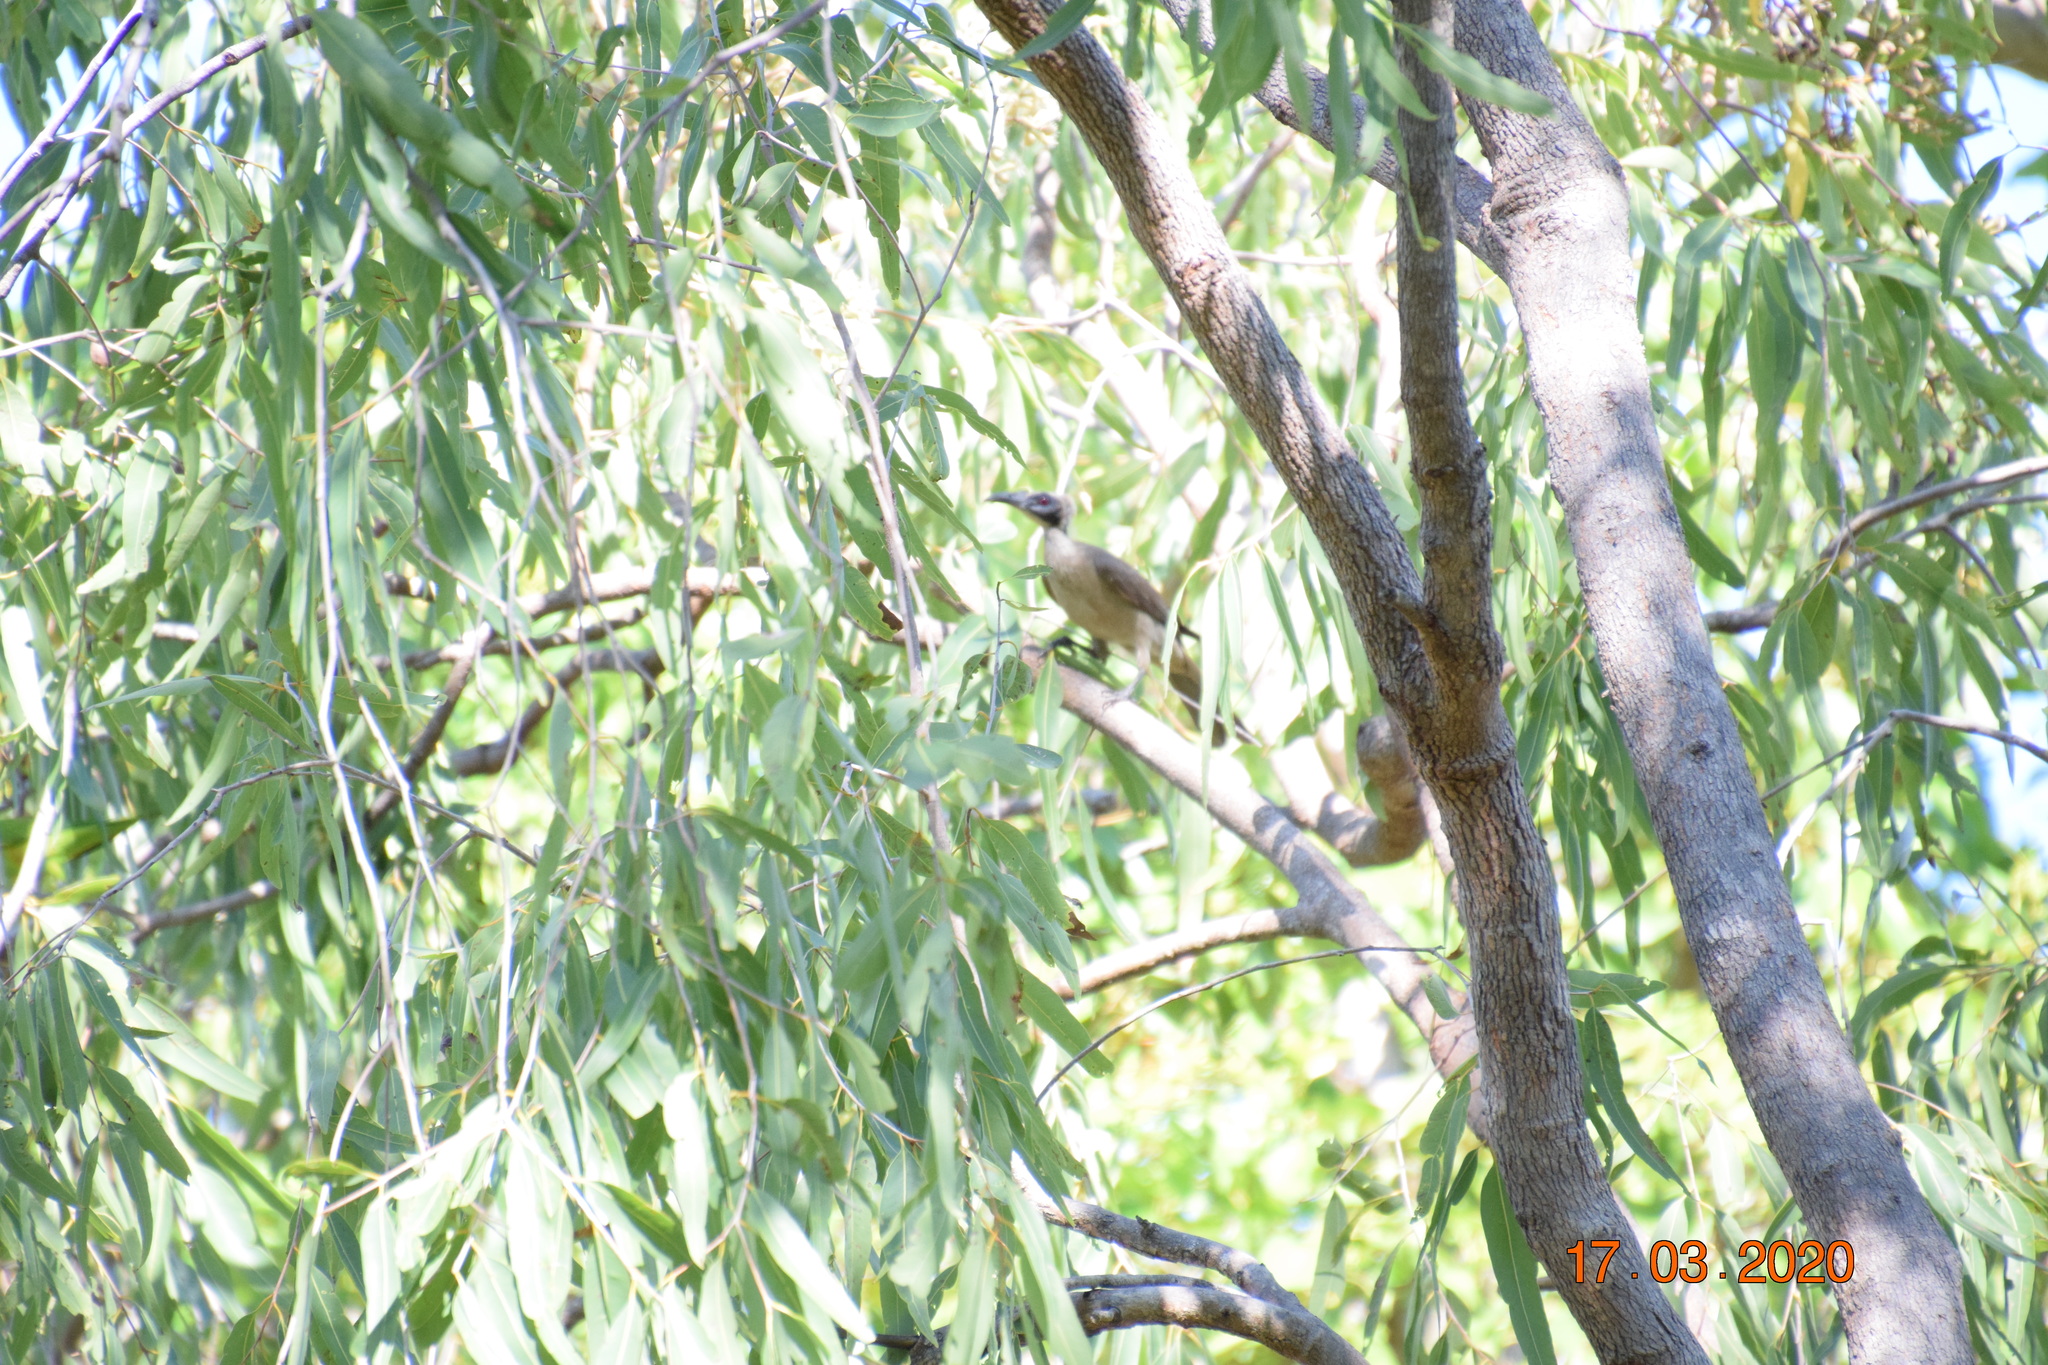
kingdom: Animalia
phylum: Chordata
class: Aves
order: Passeriformes
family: Meliphagidae
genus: Philemon
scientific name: Philemon buceroides
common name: Helmeted friarbird
